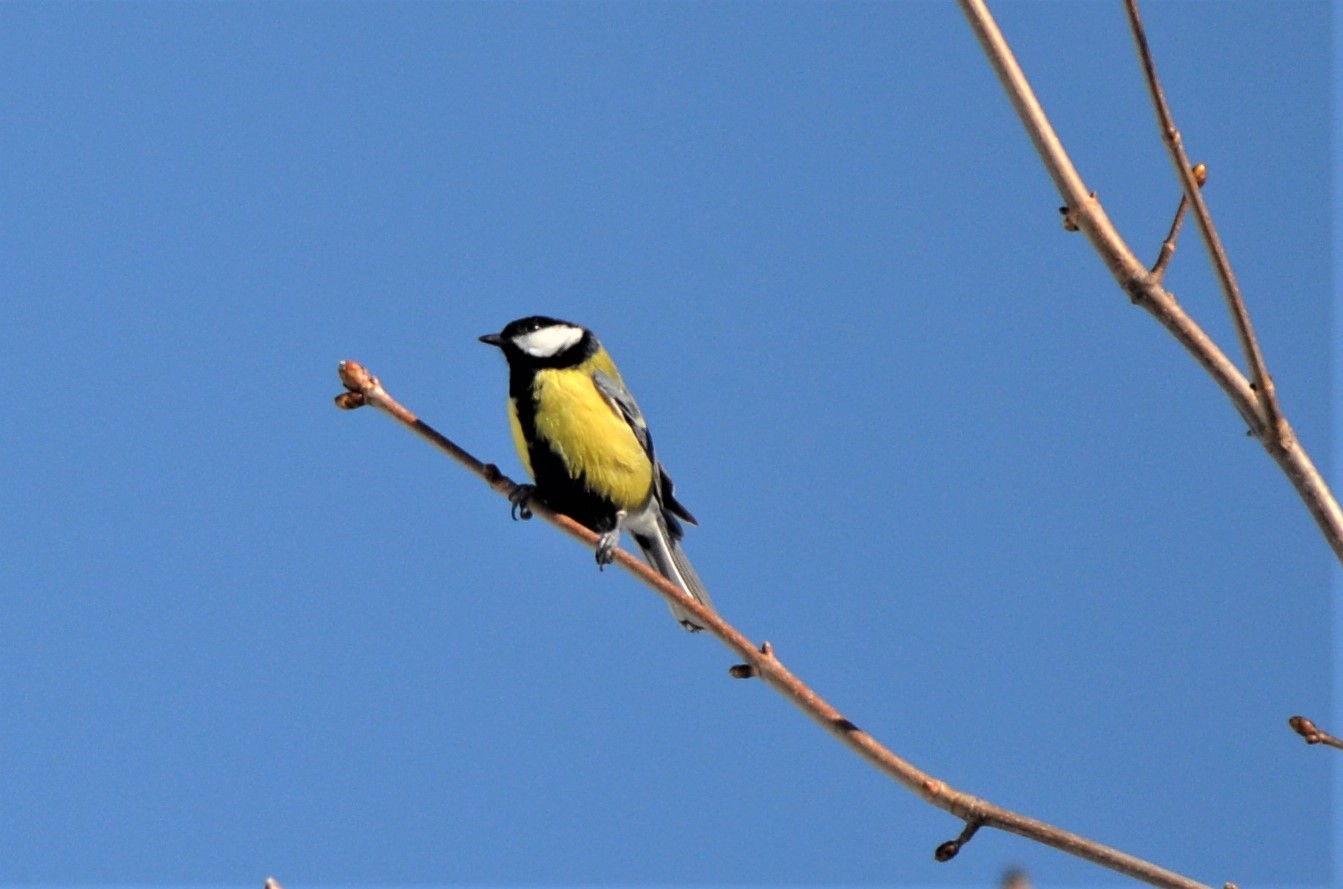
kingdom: Animalia
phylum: Chordata
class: Aves
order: Passeriformes
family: Paridae
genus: Parus
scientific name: Parus major
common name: Great tit
